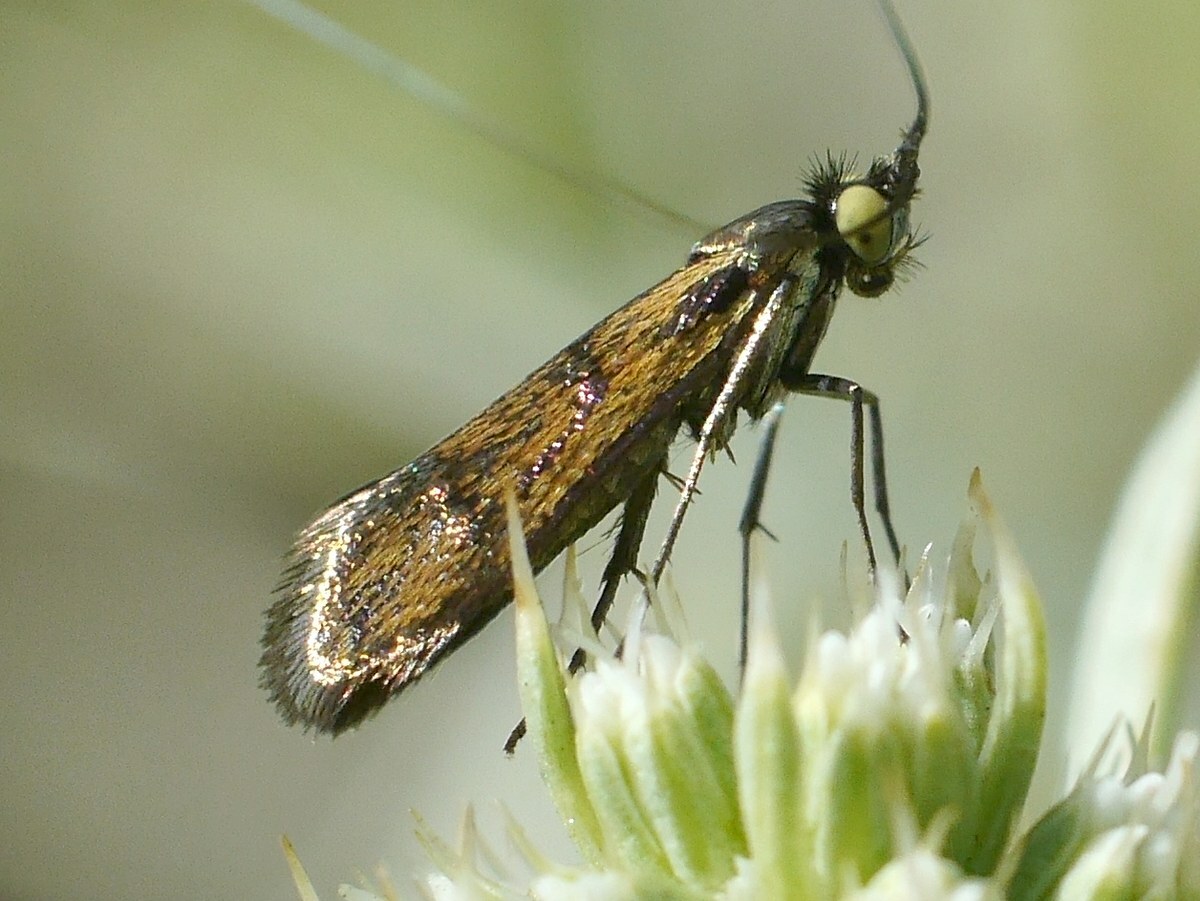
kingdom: Animalia
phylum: Arthropoda
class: Insecta
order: Lepidoptera
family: Adelidae
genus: Nemophora
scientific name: Nemophora chrysochraon
